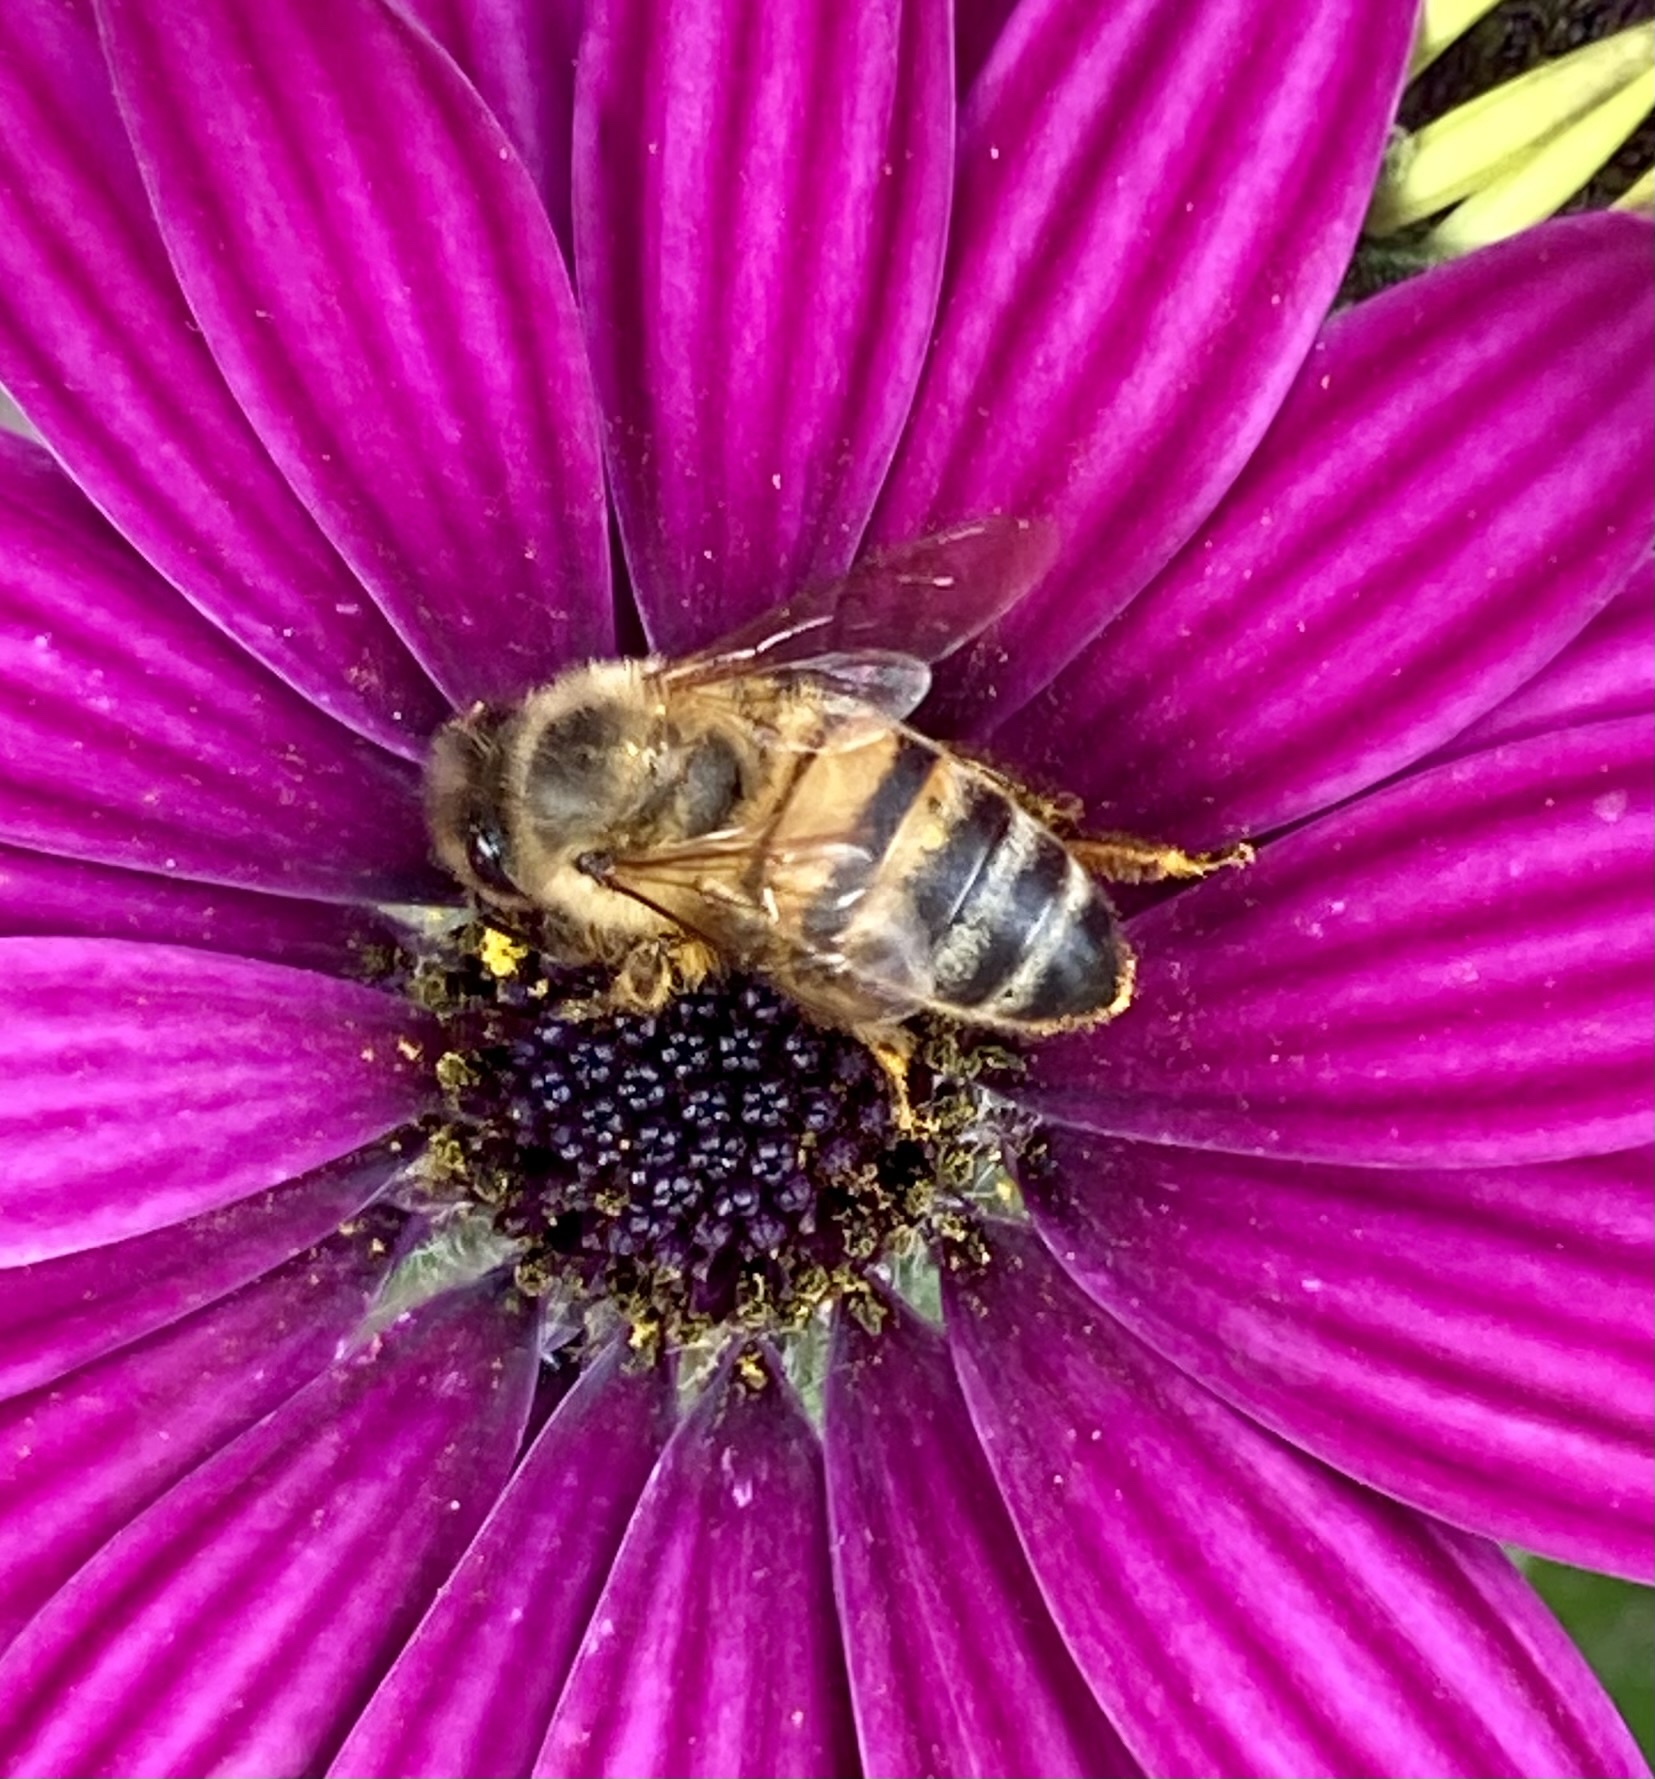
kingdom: Animalia
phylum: Arthropoda
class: Insecta
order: Hymenoptera
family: Apidae
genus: Apis
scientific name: Apis mellifera
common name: Honey bee
